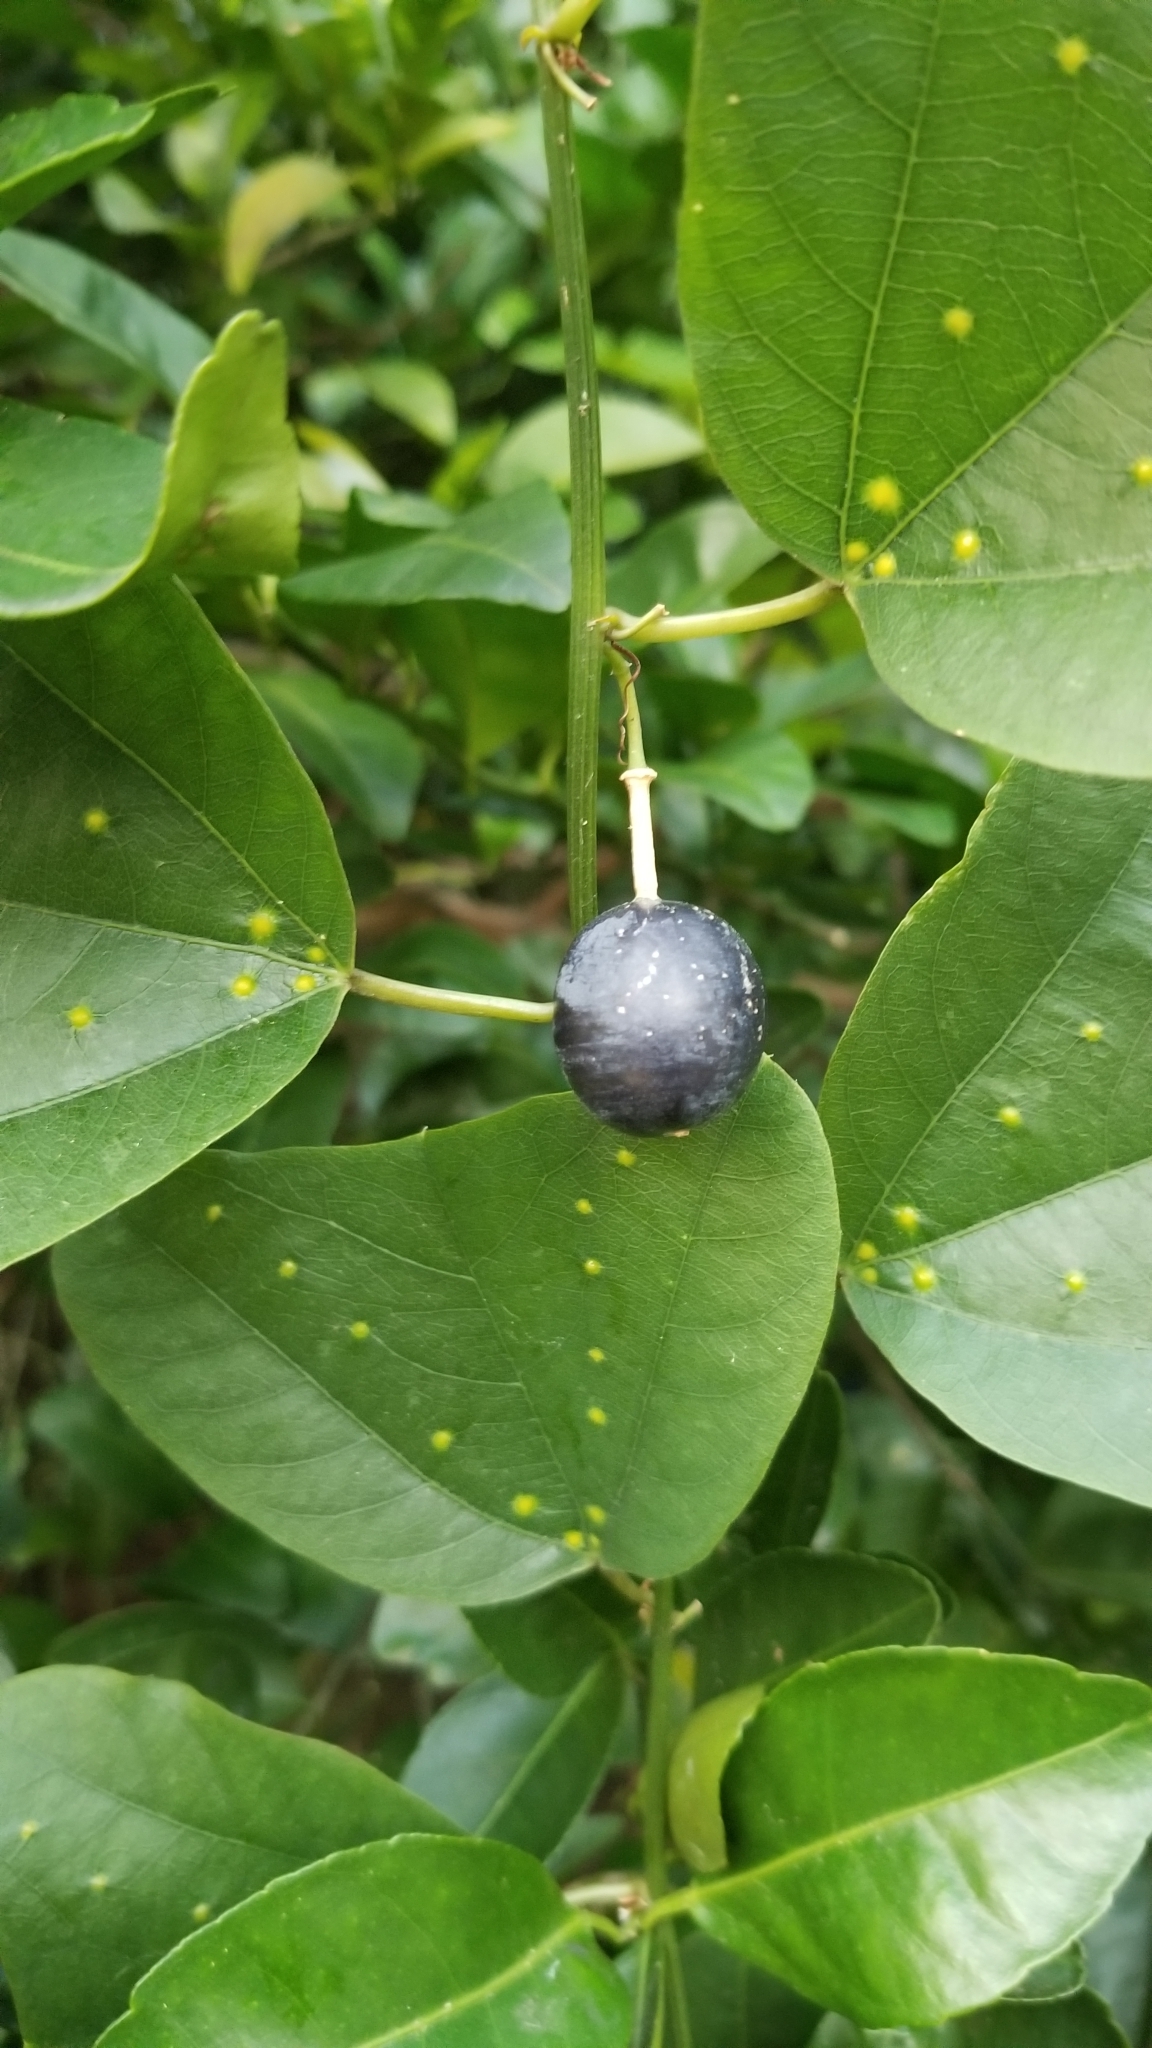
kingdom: Plantae
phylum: Tracheophyta
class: Magnoliopsida
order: Malpighiales
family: Passifloraceae
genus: Passiflora
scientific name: Passiflora biflora
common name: Twoflower passionflower
